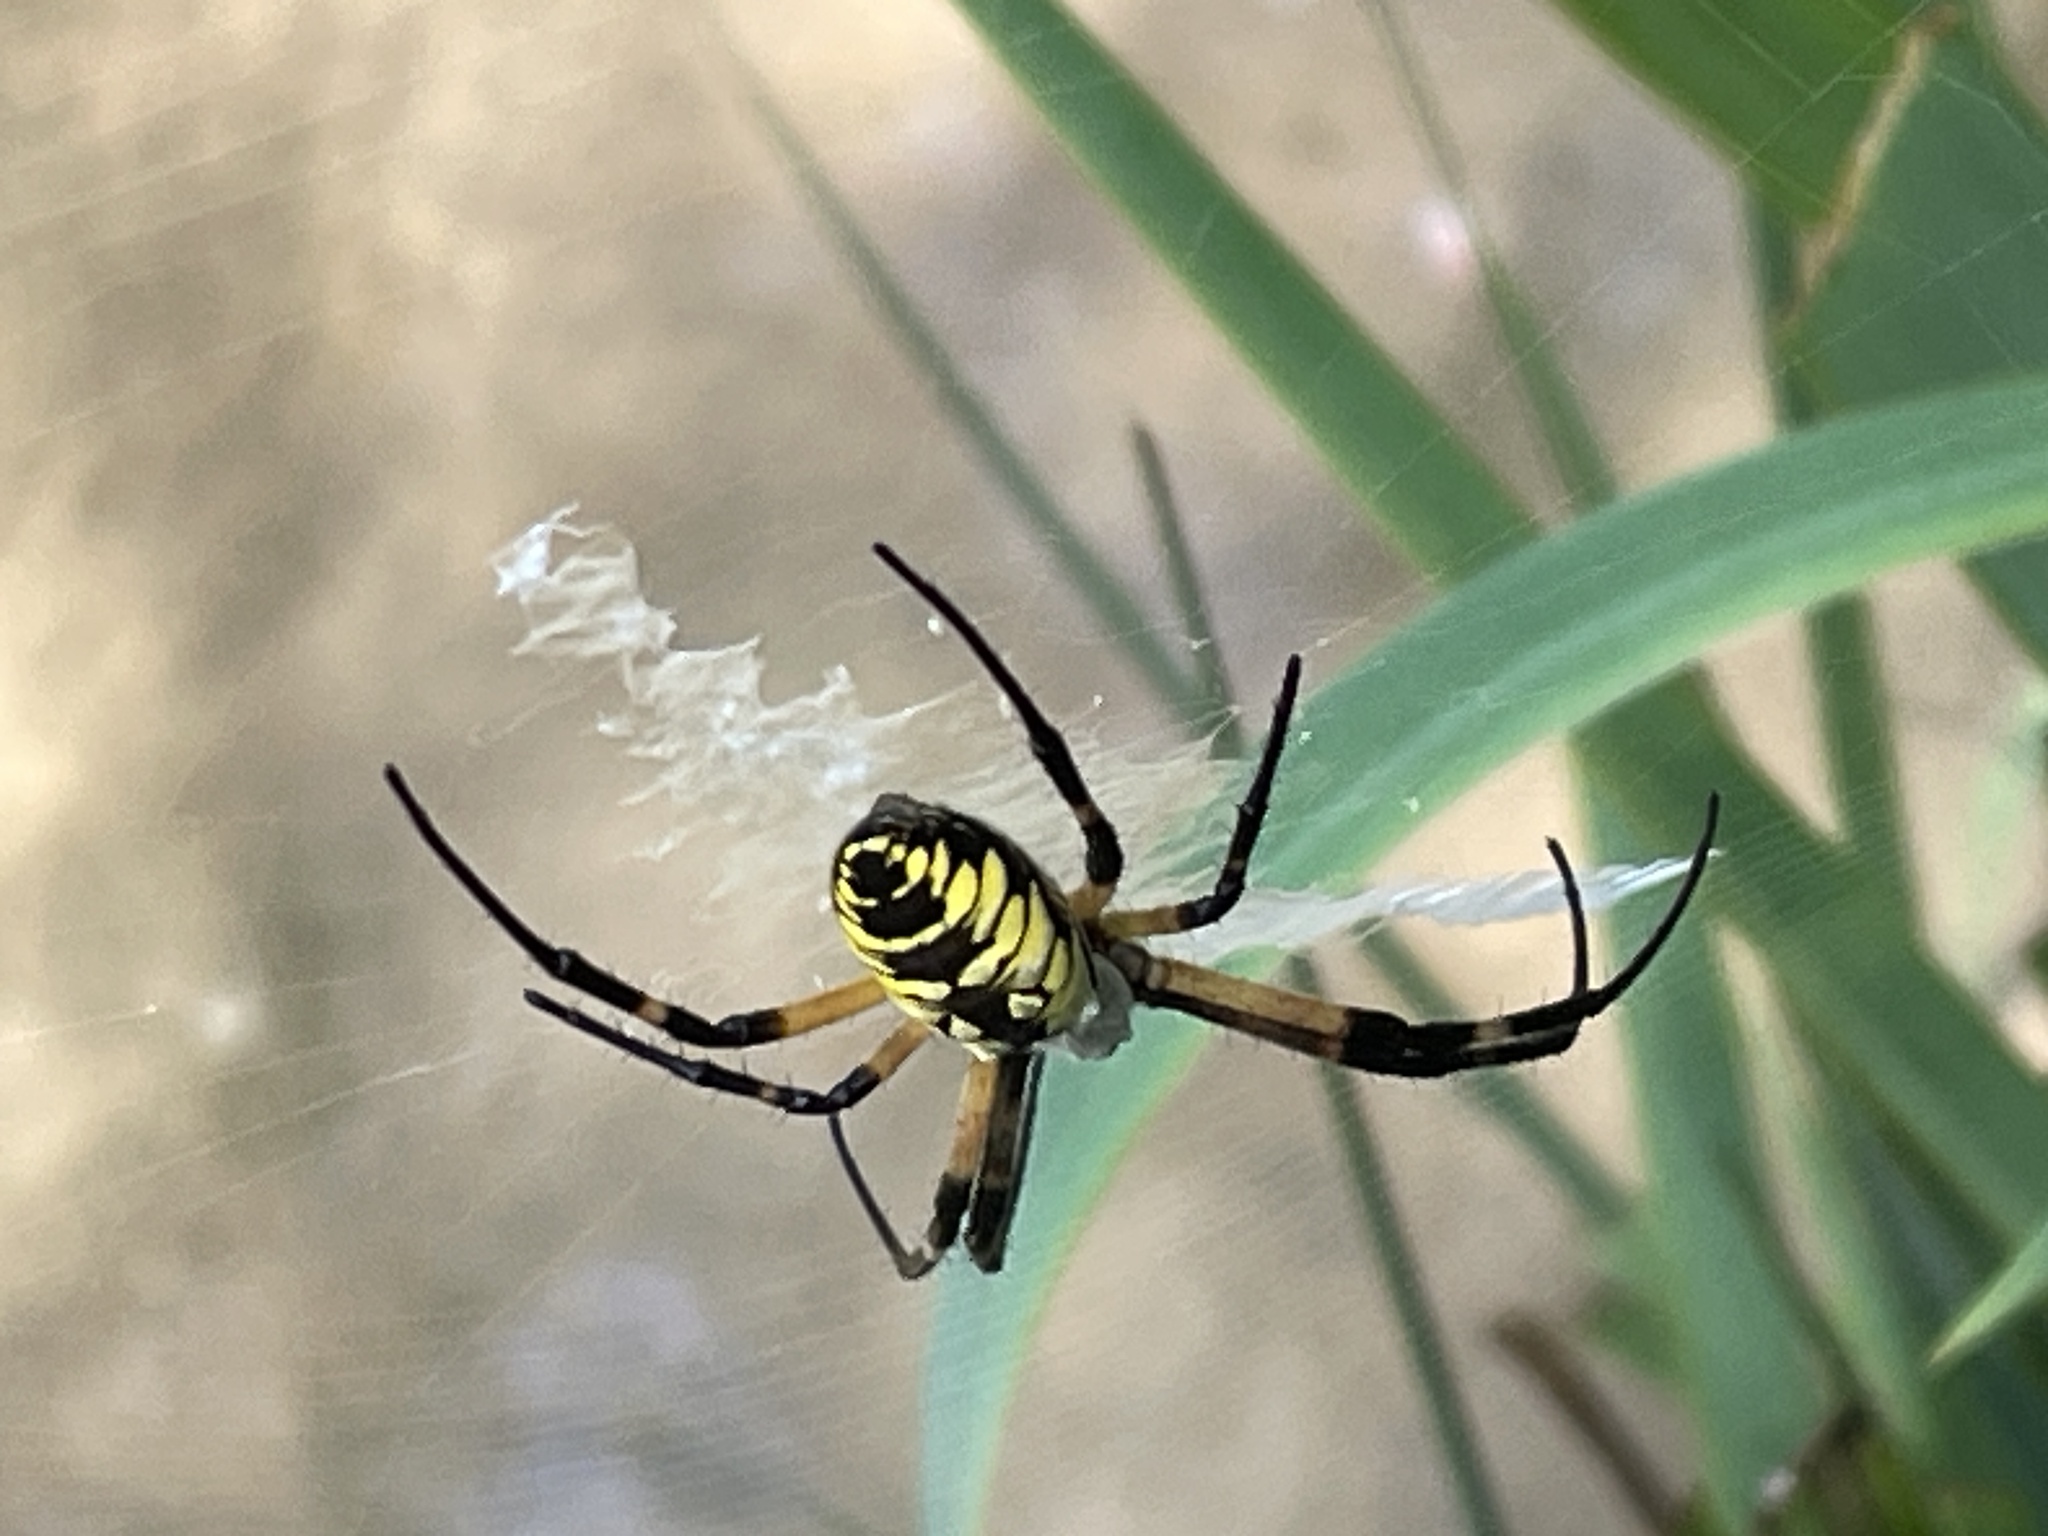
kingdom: Animalia
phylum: Arthropoda
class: Arachnida
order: Araneae
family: Araneidae
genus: Argiope
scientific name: Argiope aurantia
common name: Orb weavers
